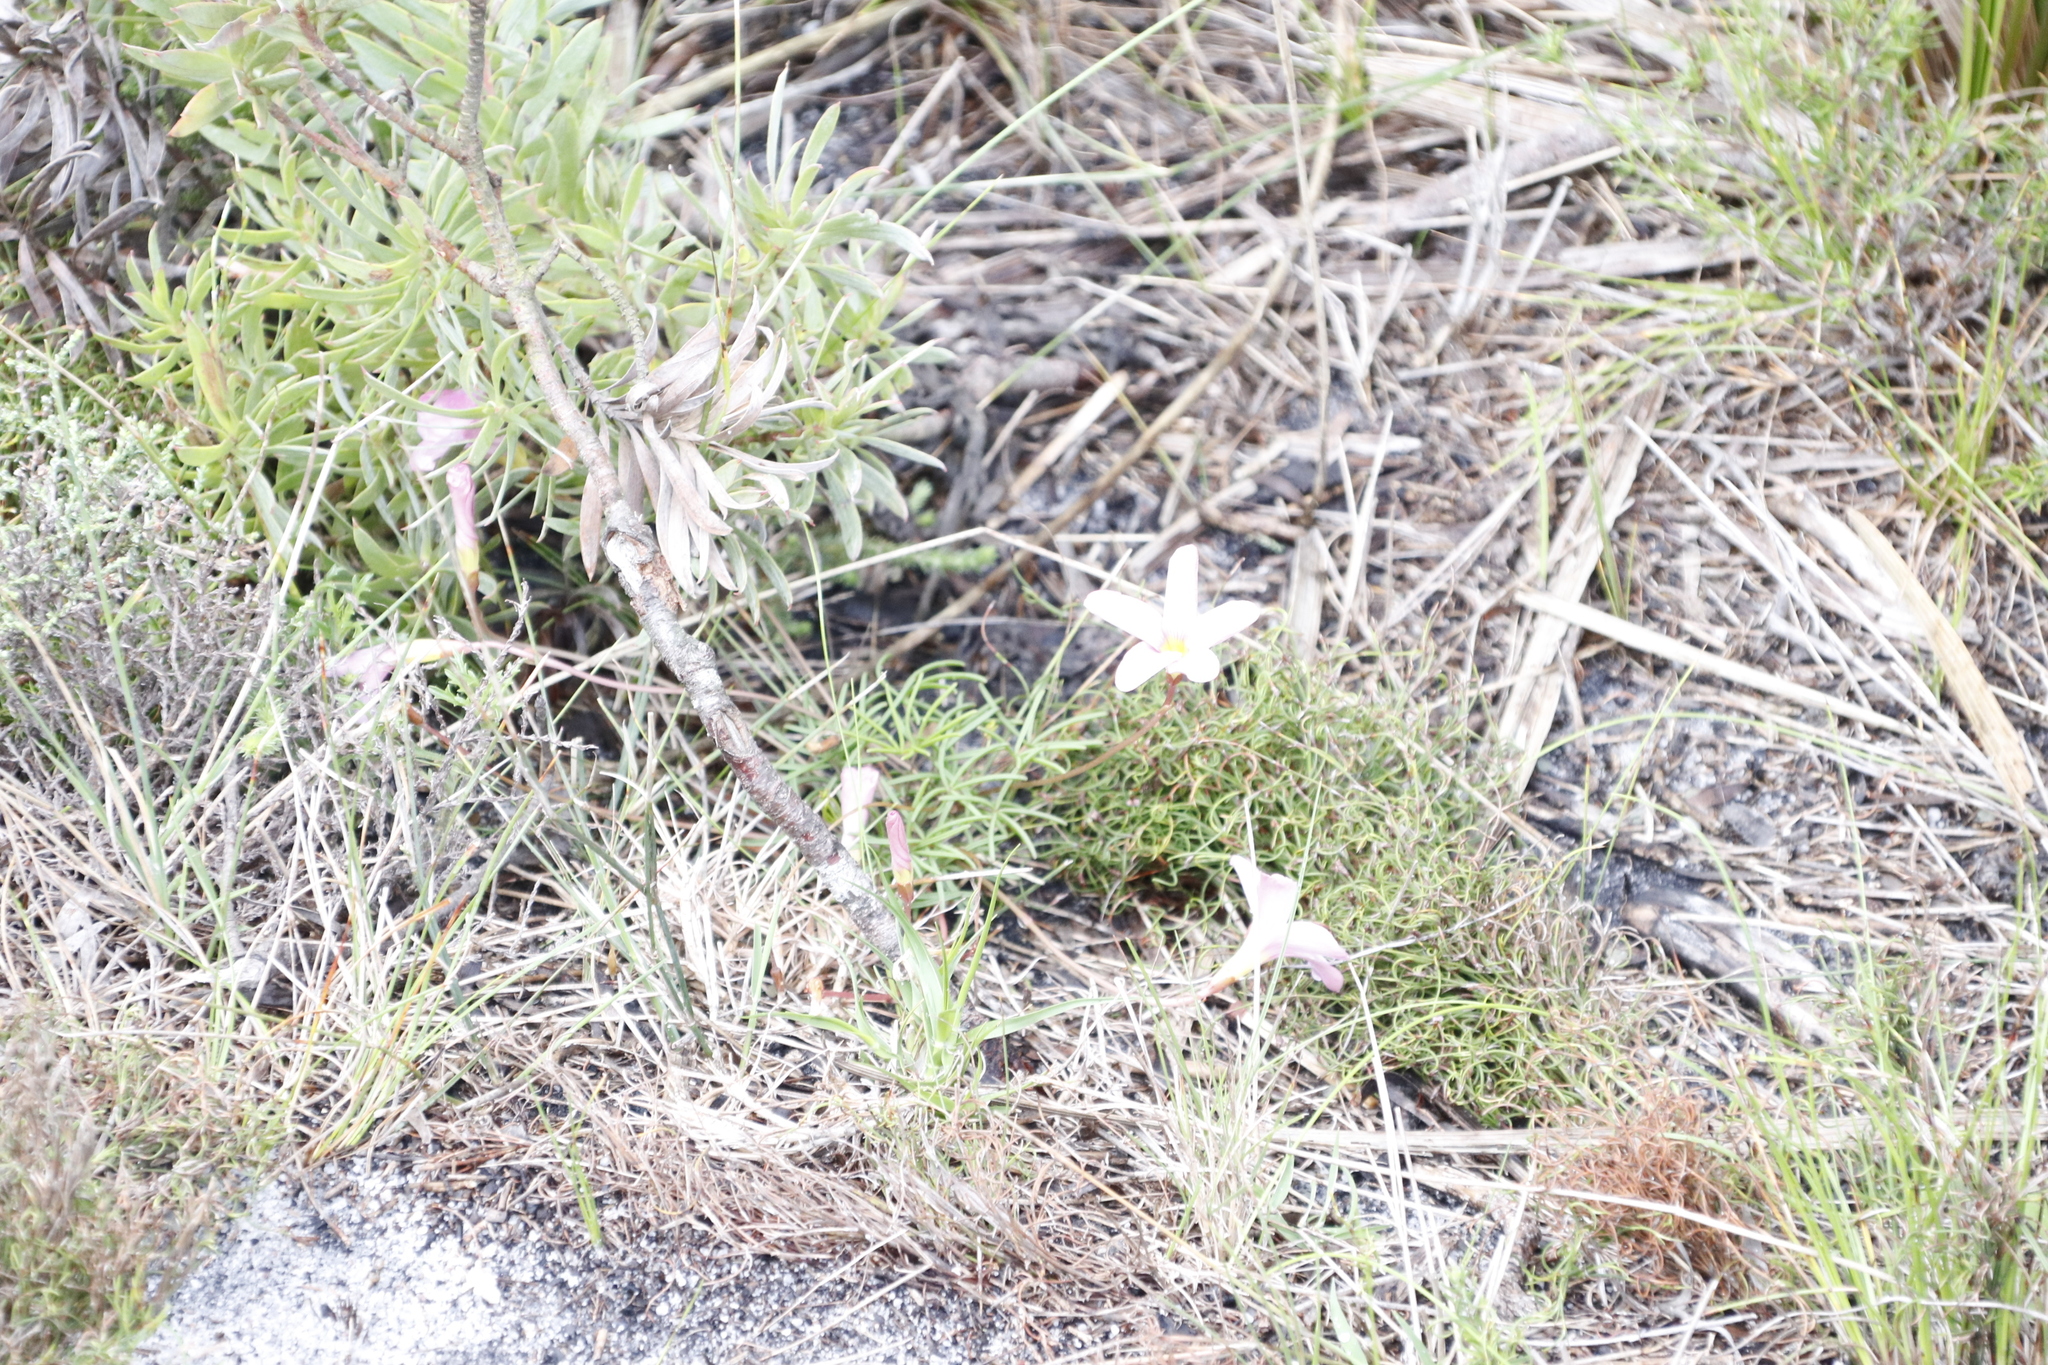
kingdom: Plantae
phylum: Tracheophyta
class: Magnoliopsida
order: Oxalidales
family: Oxalidaceae
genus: Oxalis
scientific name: Oxalis polyphylla
